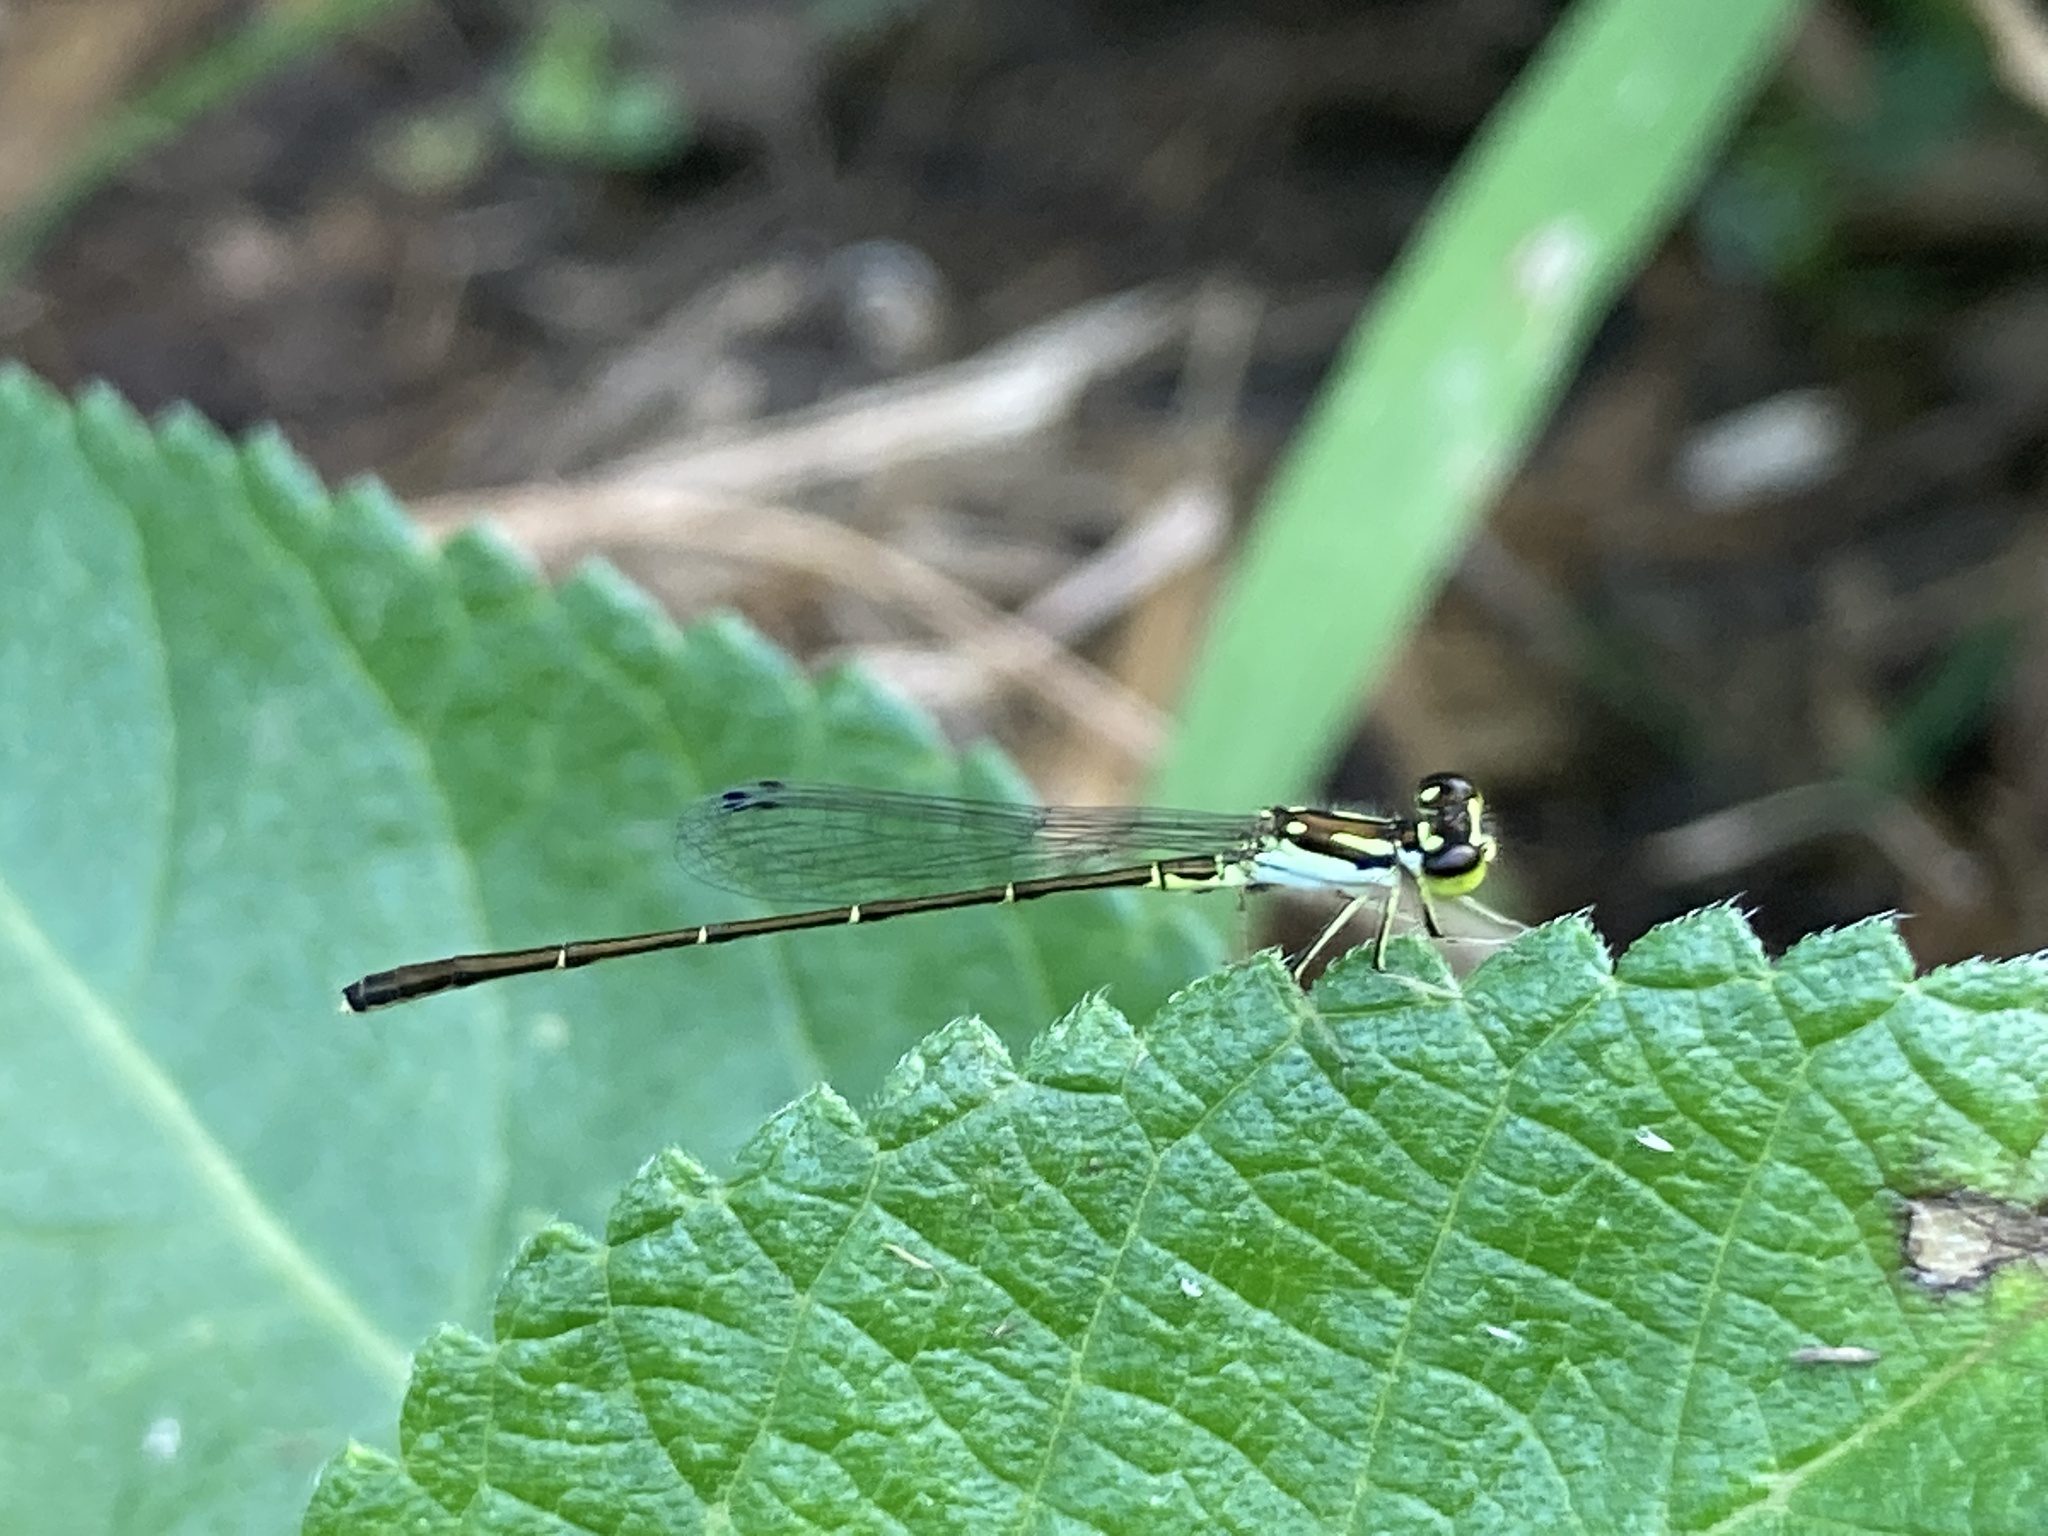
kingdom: Animalia
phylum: Arthropoda
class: Insecta
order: Odonata
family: Coenagrionidae
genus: Ischnura
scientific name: Ischnura posita
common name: Fragile forktail
